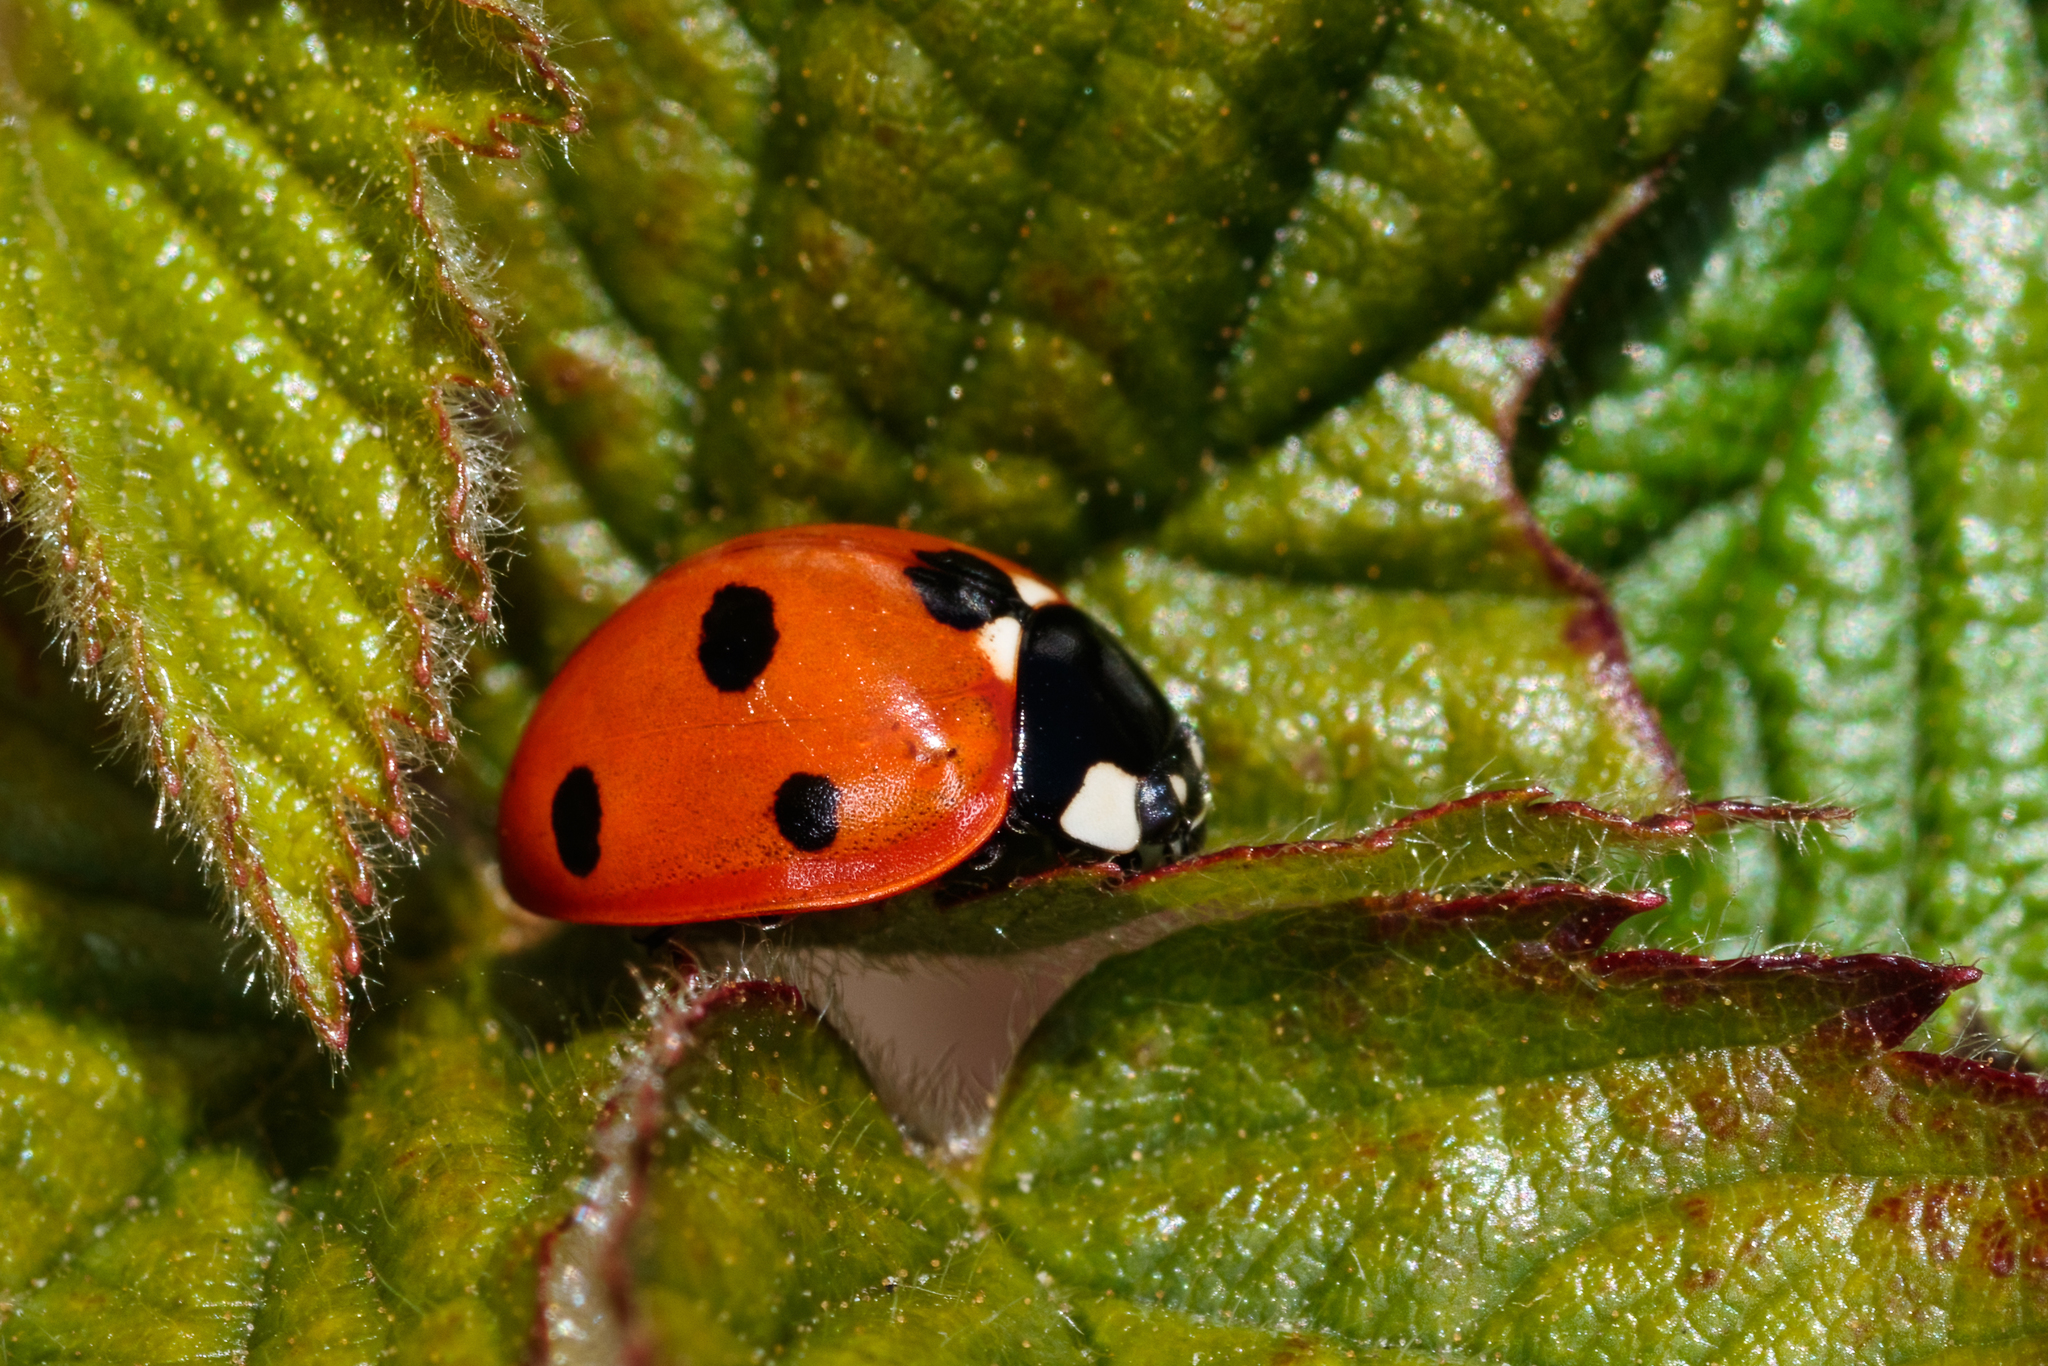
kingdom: Animalia
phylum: Arthropoda
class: Insecta
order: Coleoptera
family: Coccinellidae
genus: Coccinella
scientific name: Coccinella septempunctata
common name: Sevenspotted lady beetle
